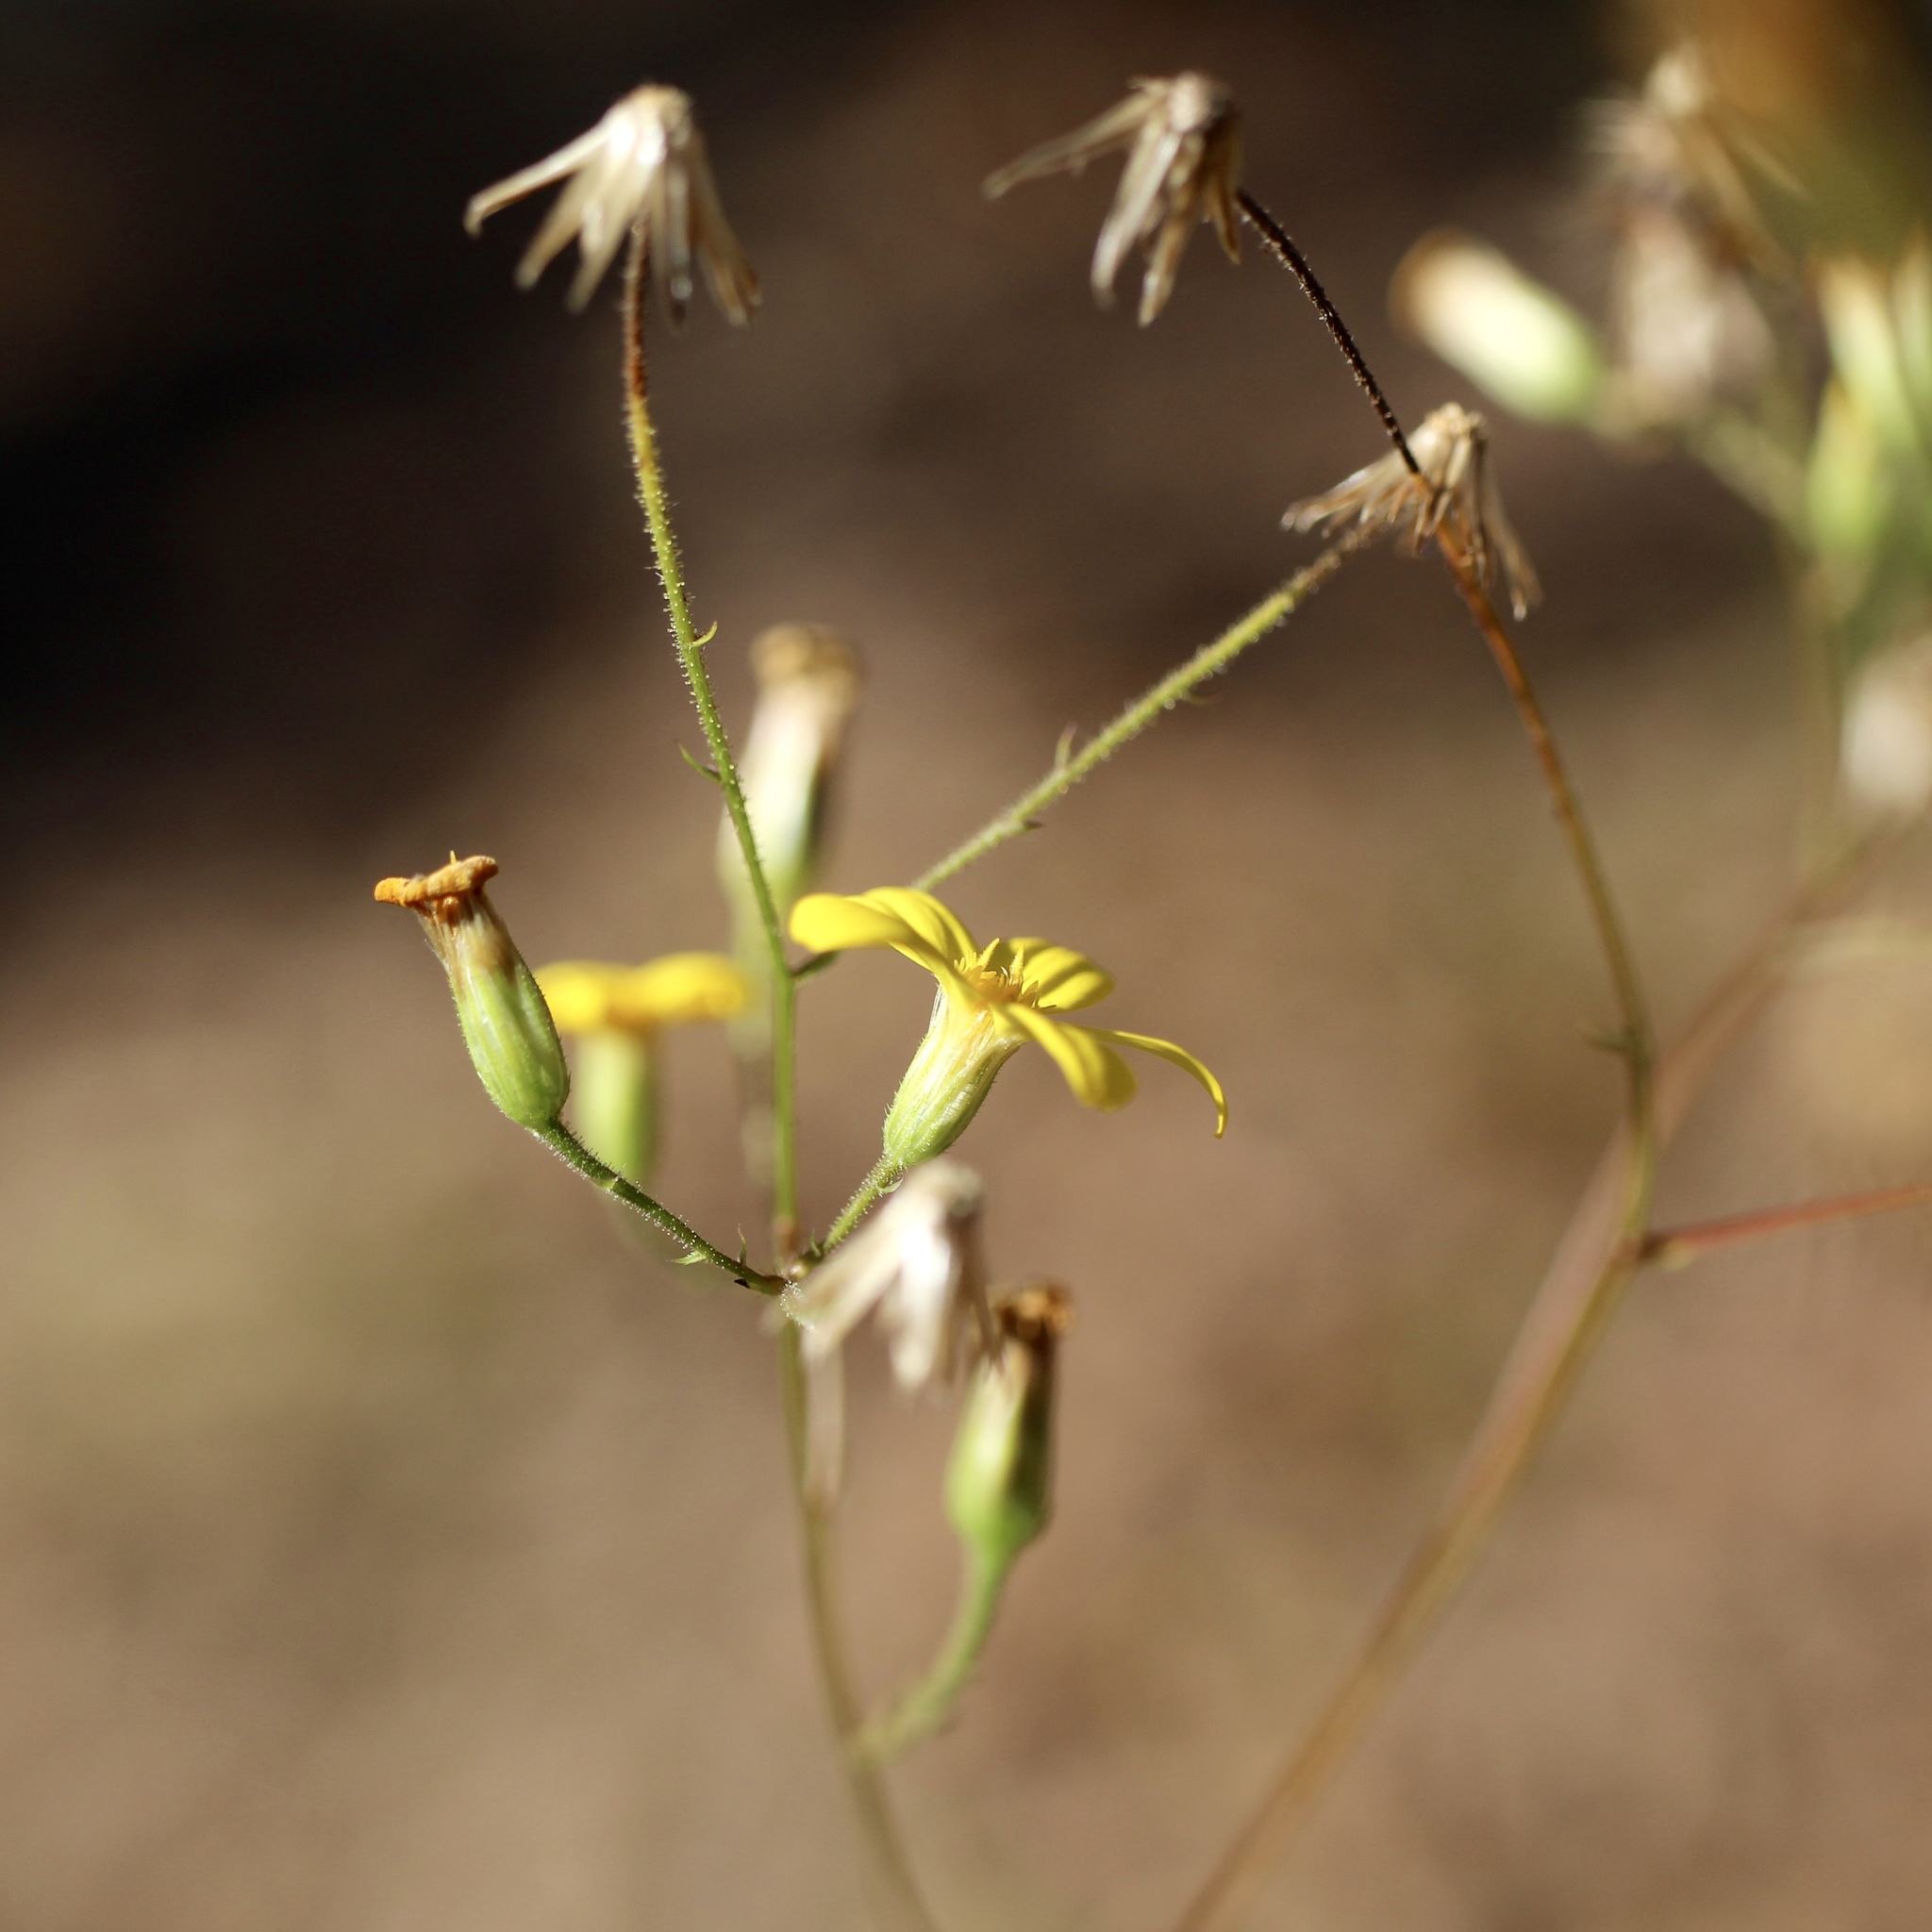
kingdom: Plantae
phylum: Tracheophyta
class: Magnoliopsida
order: Asterales
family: Asteraceae
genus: Croptilon
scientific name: Croptilon divaricatum
